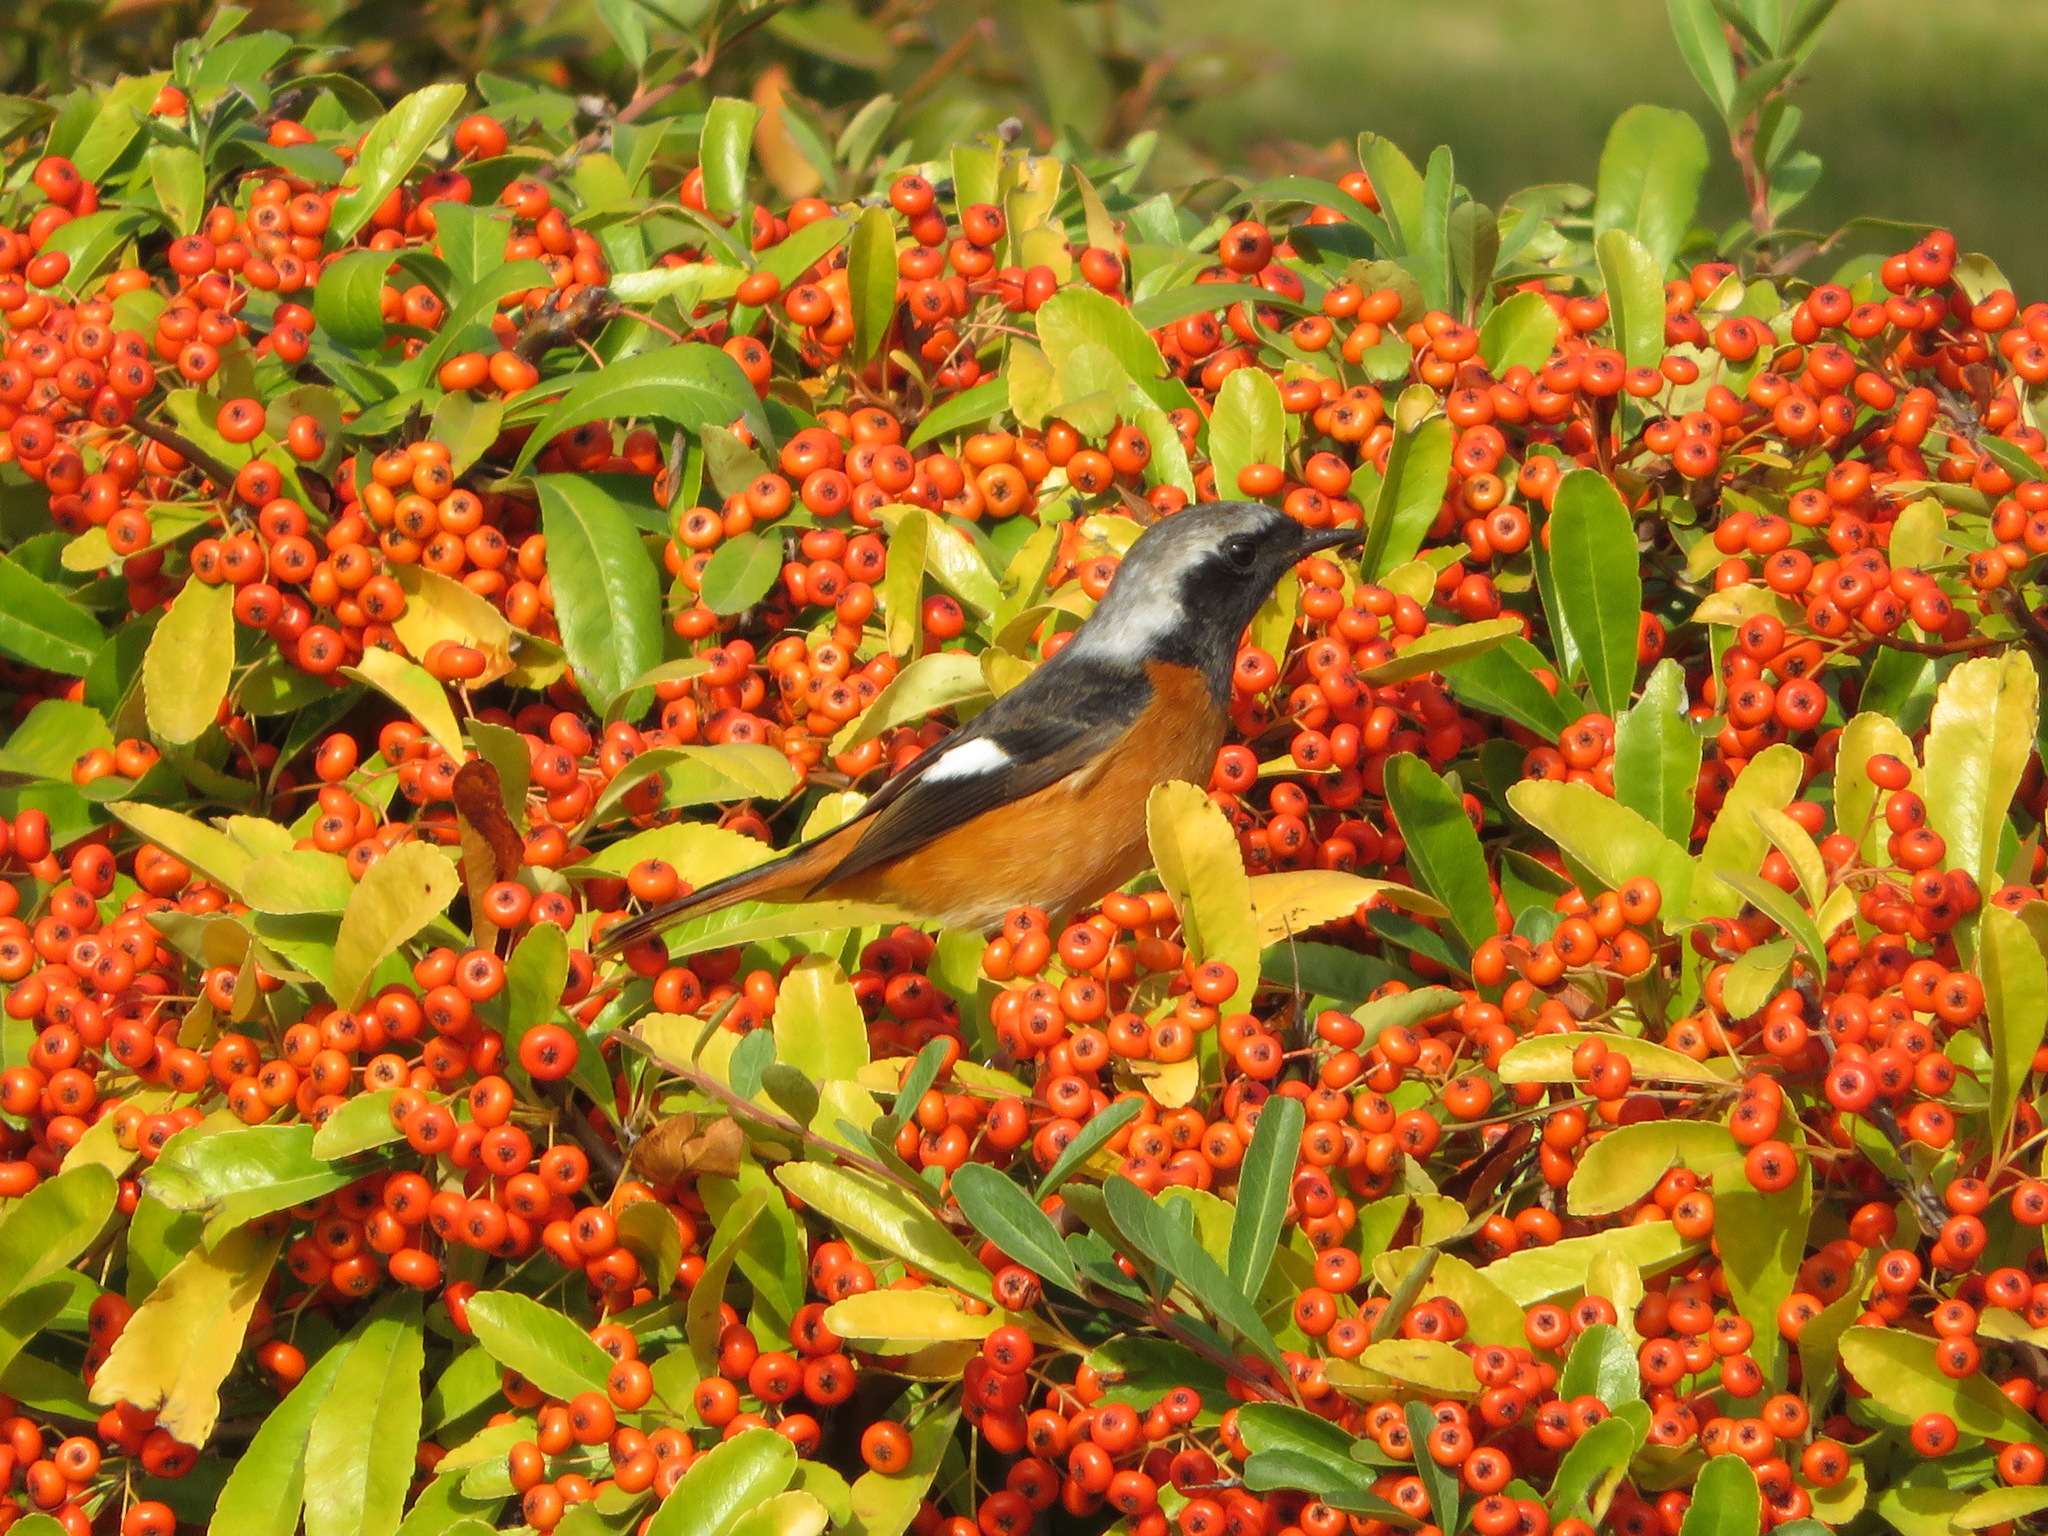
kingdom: Animalia
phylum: Chordata
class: Aves
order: Passeriformes
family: Muscicapidae
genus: Phoenicurus
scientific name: Phoenicurus auroreus
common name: Daurian redstart
